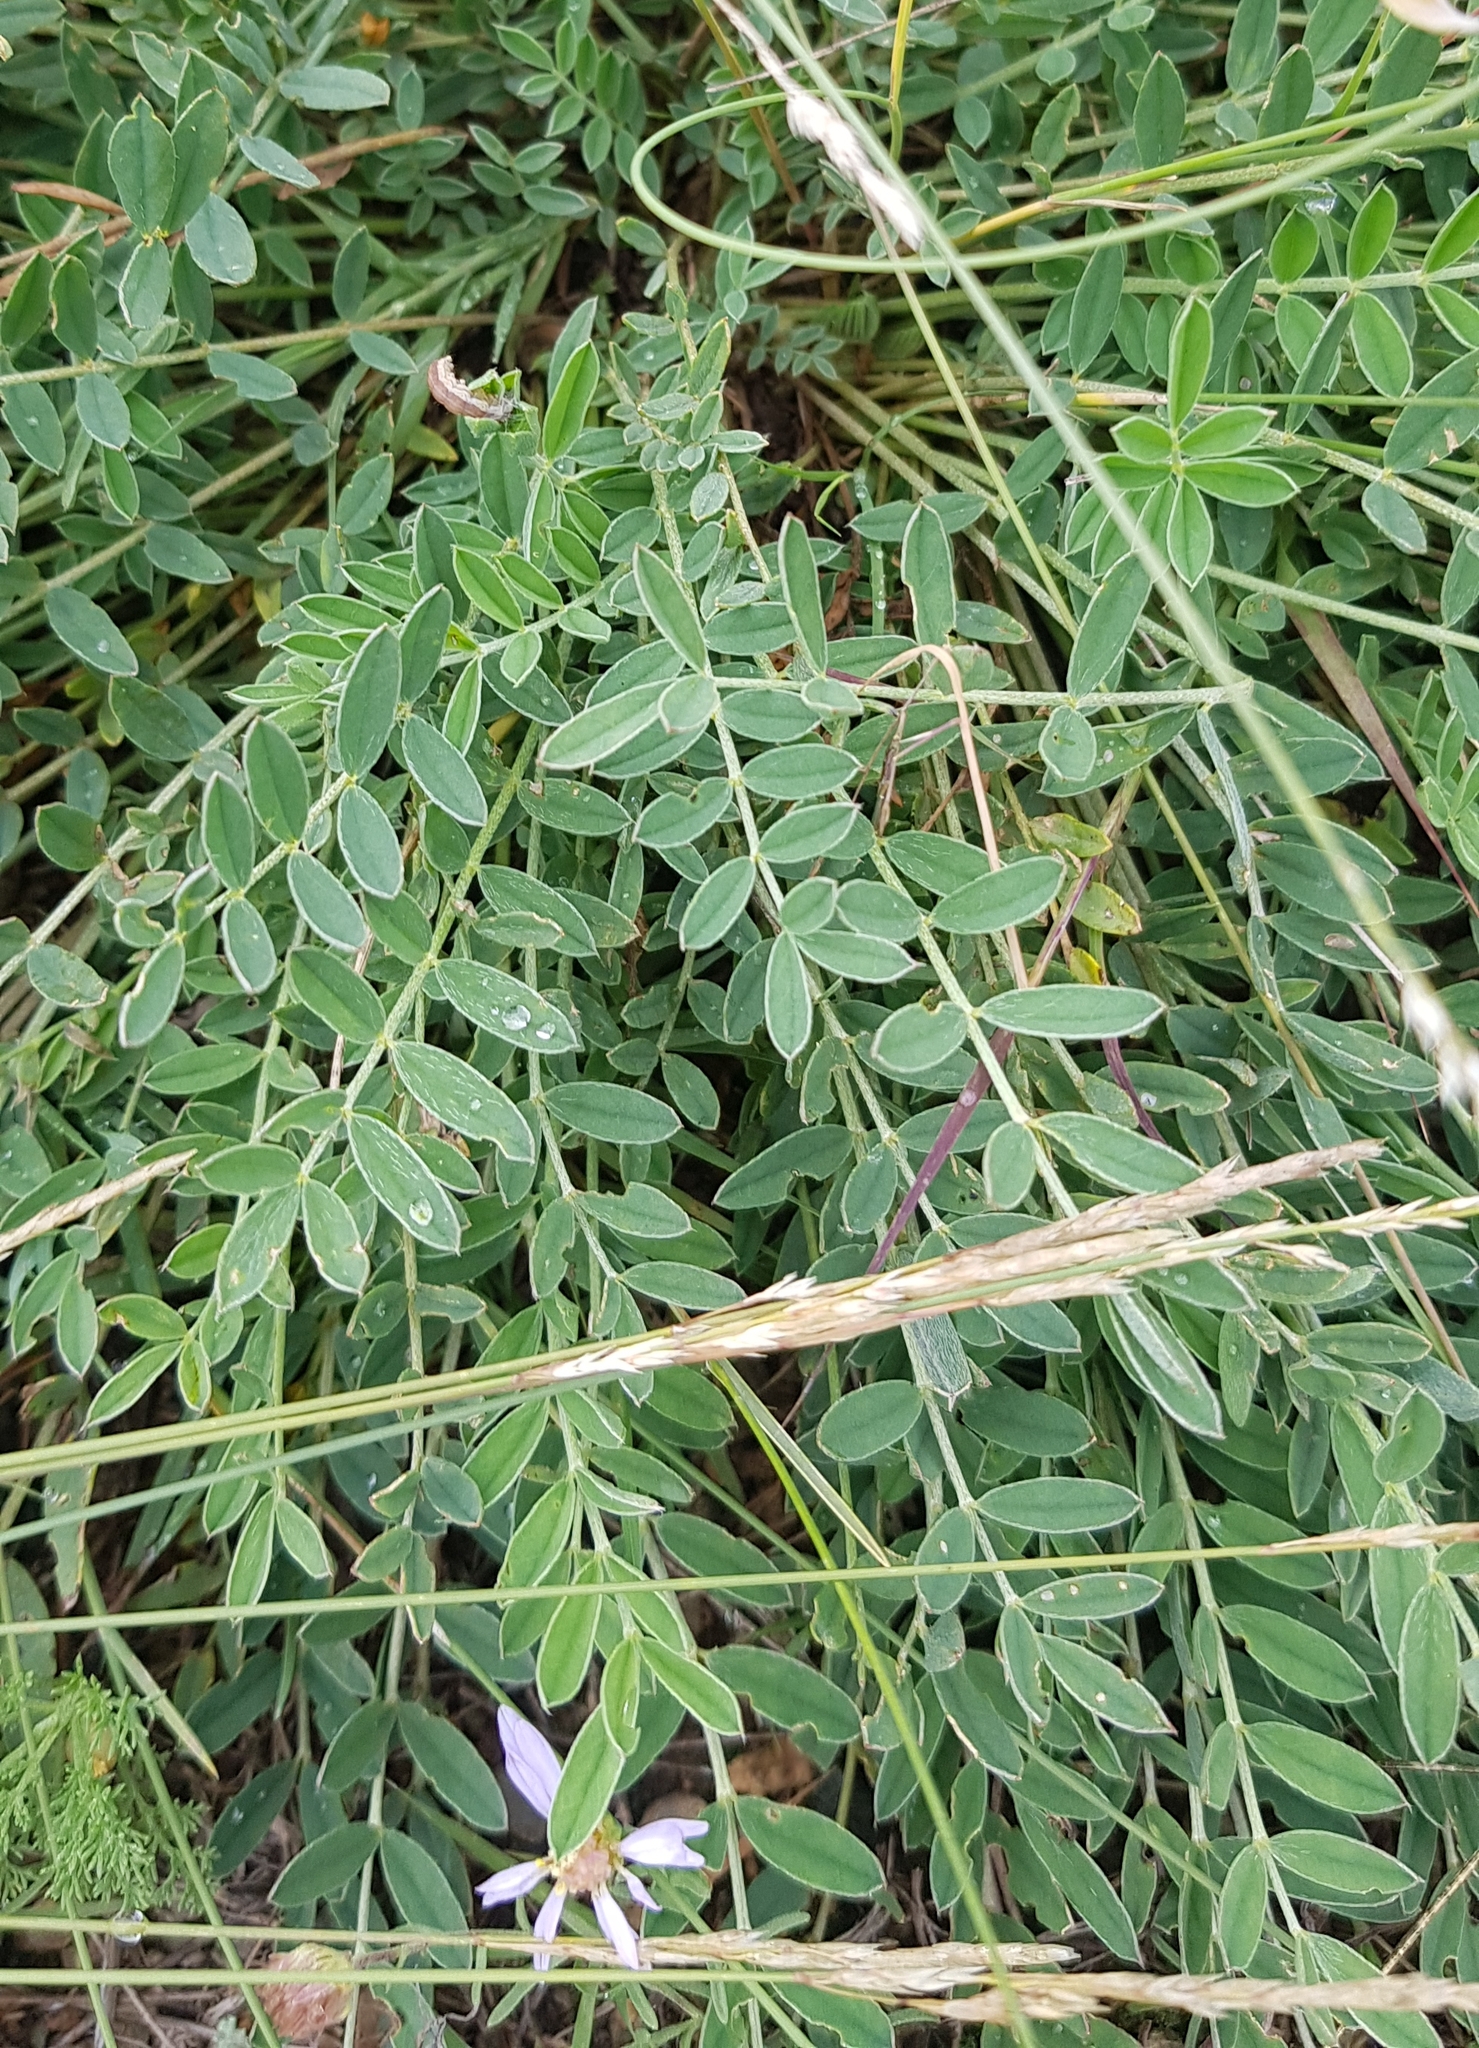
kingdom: Plantae
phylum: Tracheophyta
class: Magnoliopsida
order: Fabales
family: Fabaceae
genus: Onobrychis
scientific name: Onobrychis arenaria
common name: Sand esparcet
